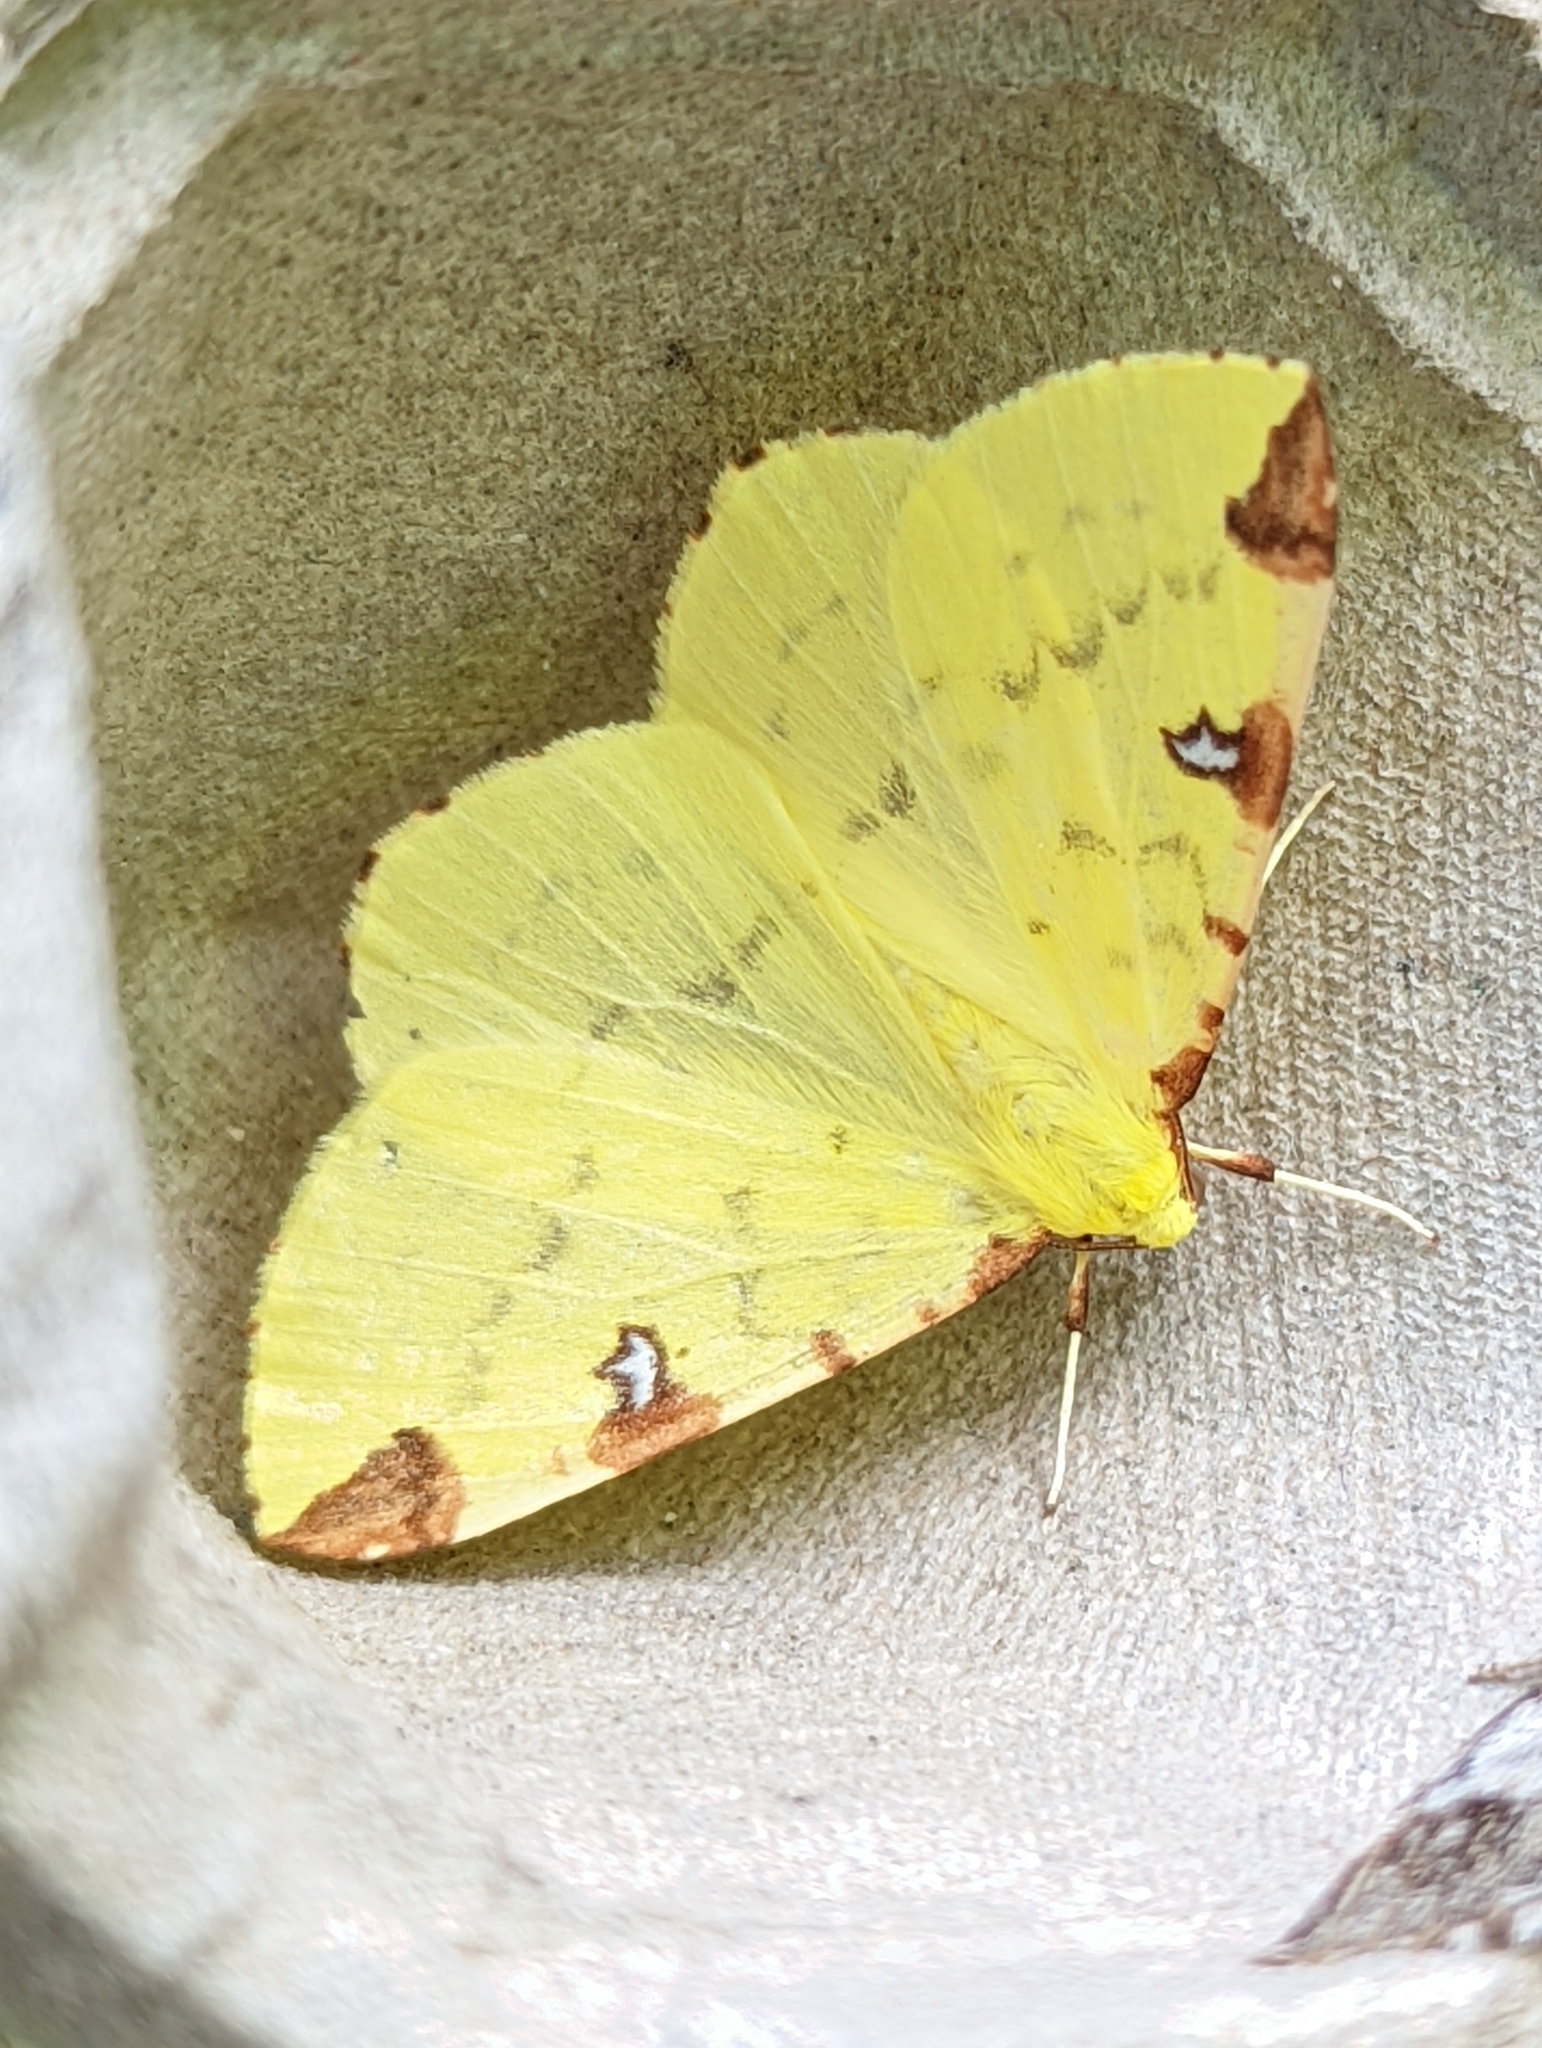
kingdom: Animalia
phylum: Arthropoda
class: Insecta
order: Lepidoptera
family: Geometridae
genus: Opisthograptis
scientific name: Opisthograptis luteolata
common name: Brimstone moth
